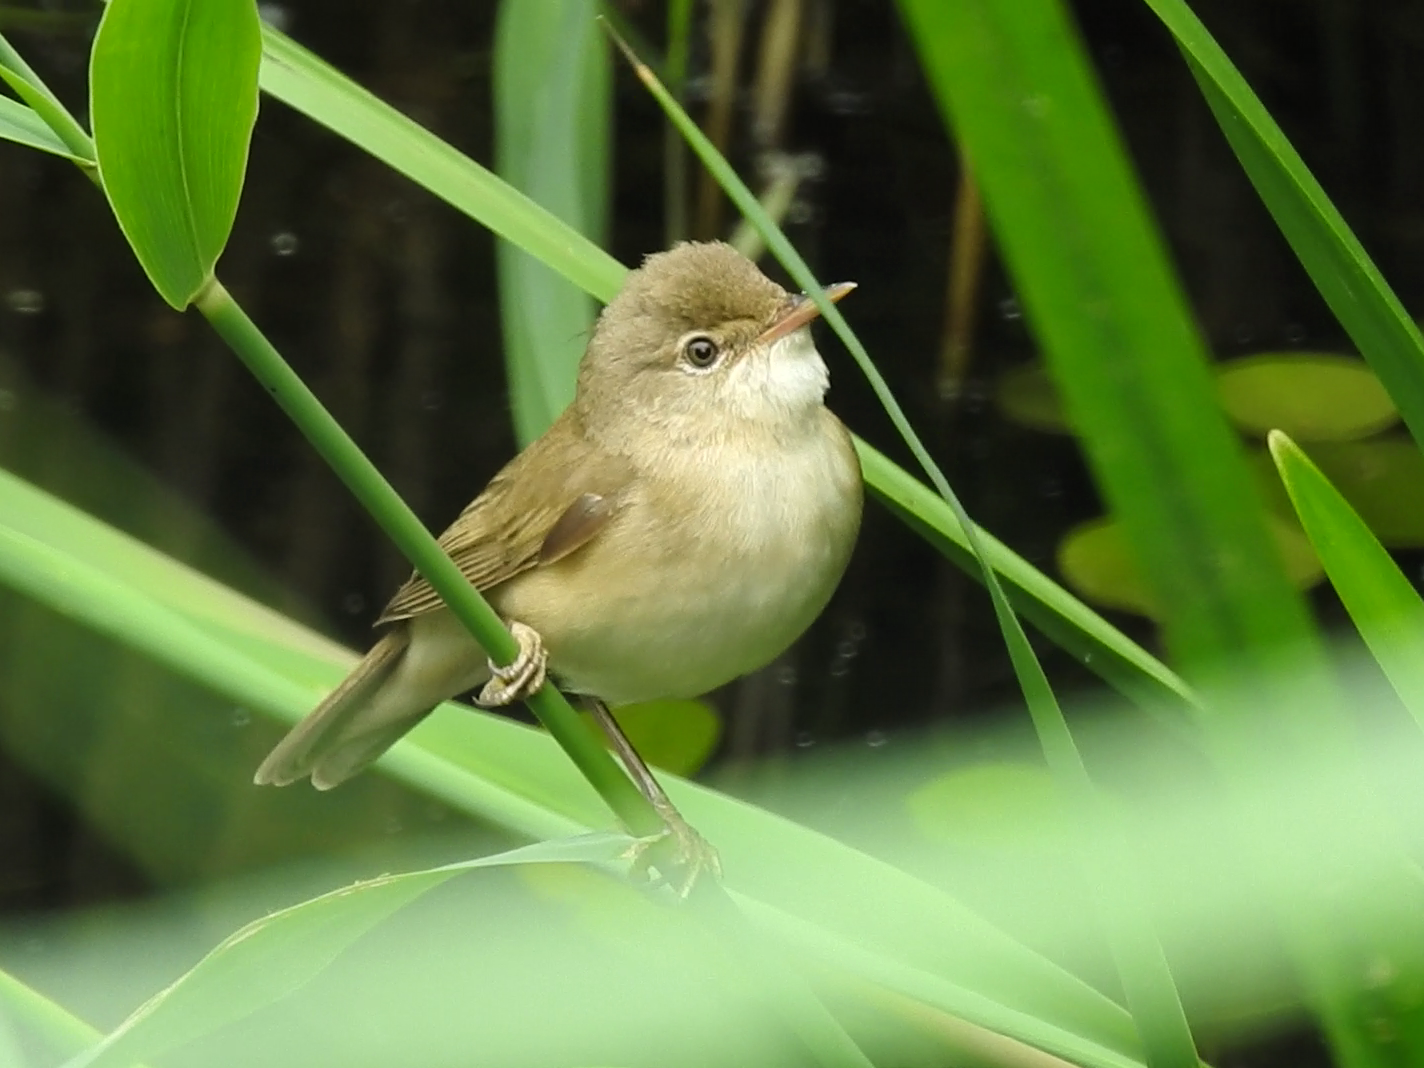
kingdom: Animalia
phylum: Chordata
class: Aves
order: Passeriformes
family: Acrocephalidae
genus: Acrocephalus
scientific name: Acrocephalus scirpaceus
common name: Eurasian reed warbler
